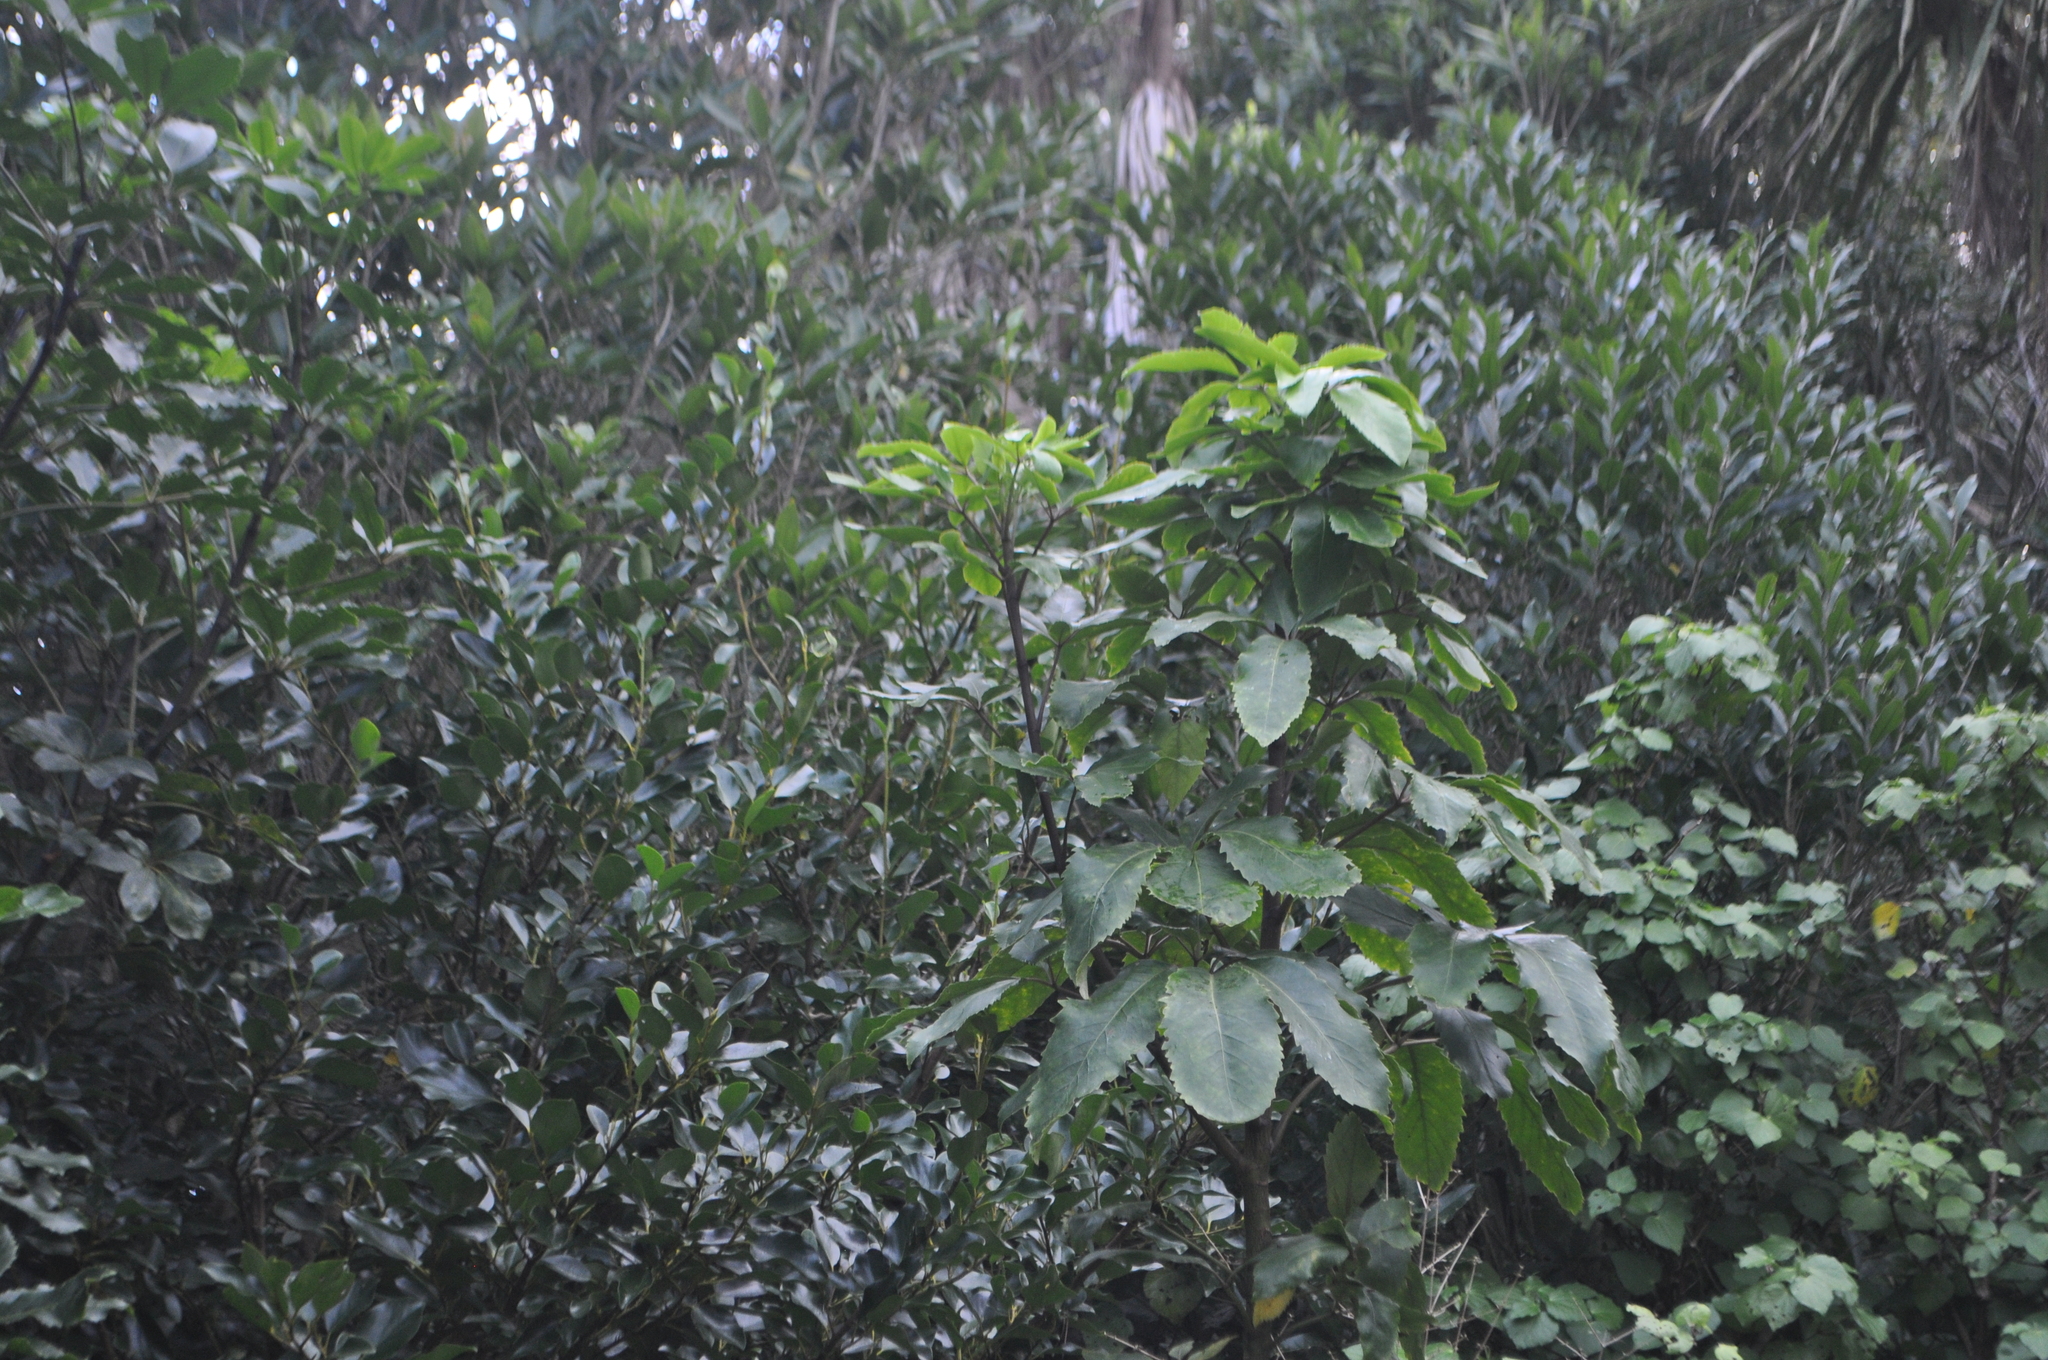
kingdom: Plantae
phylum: Tracheophyta
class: Magnoliopsida
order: Apiales
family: Araliaceae
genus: Neopanax
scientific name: Neopanax arboreus
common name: Five-fingers
